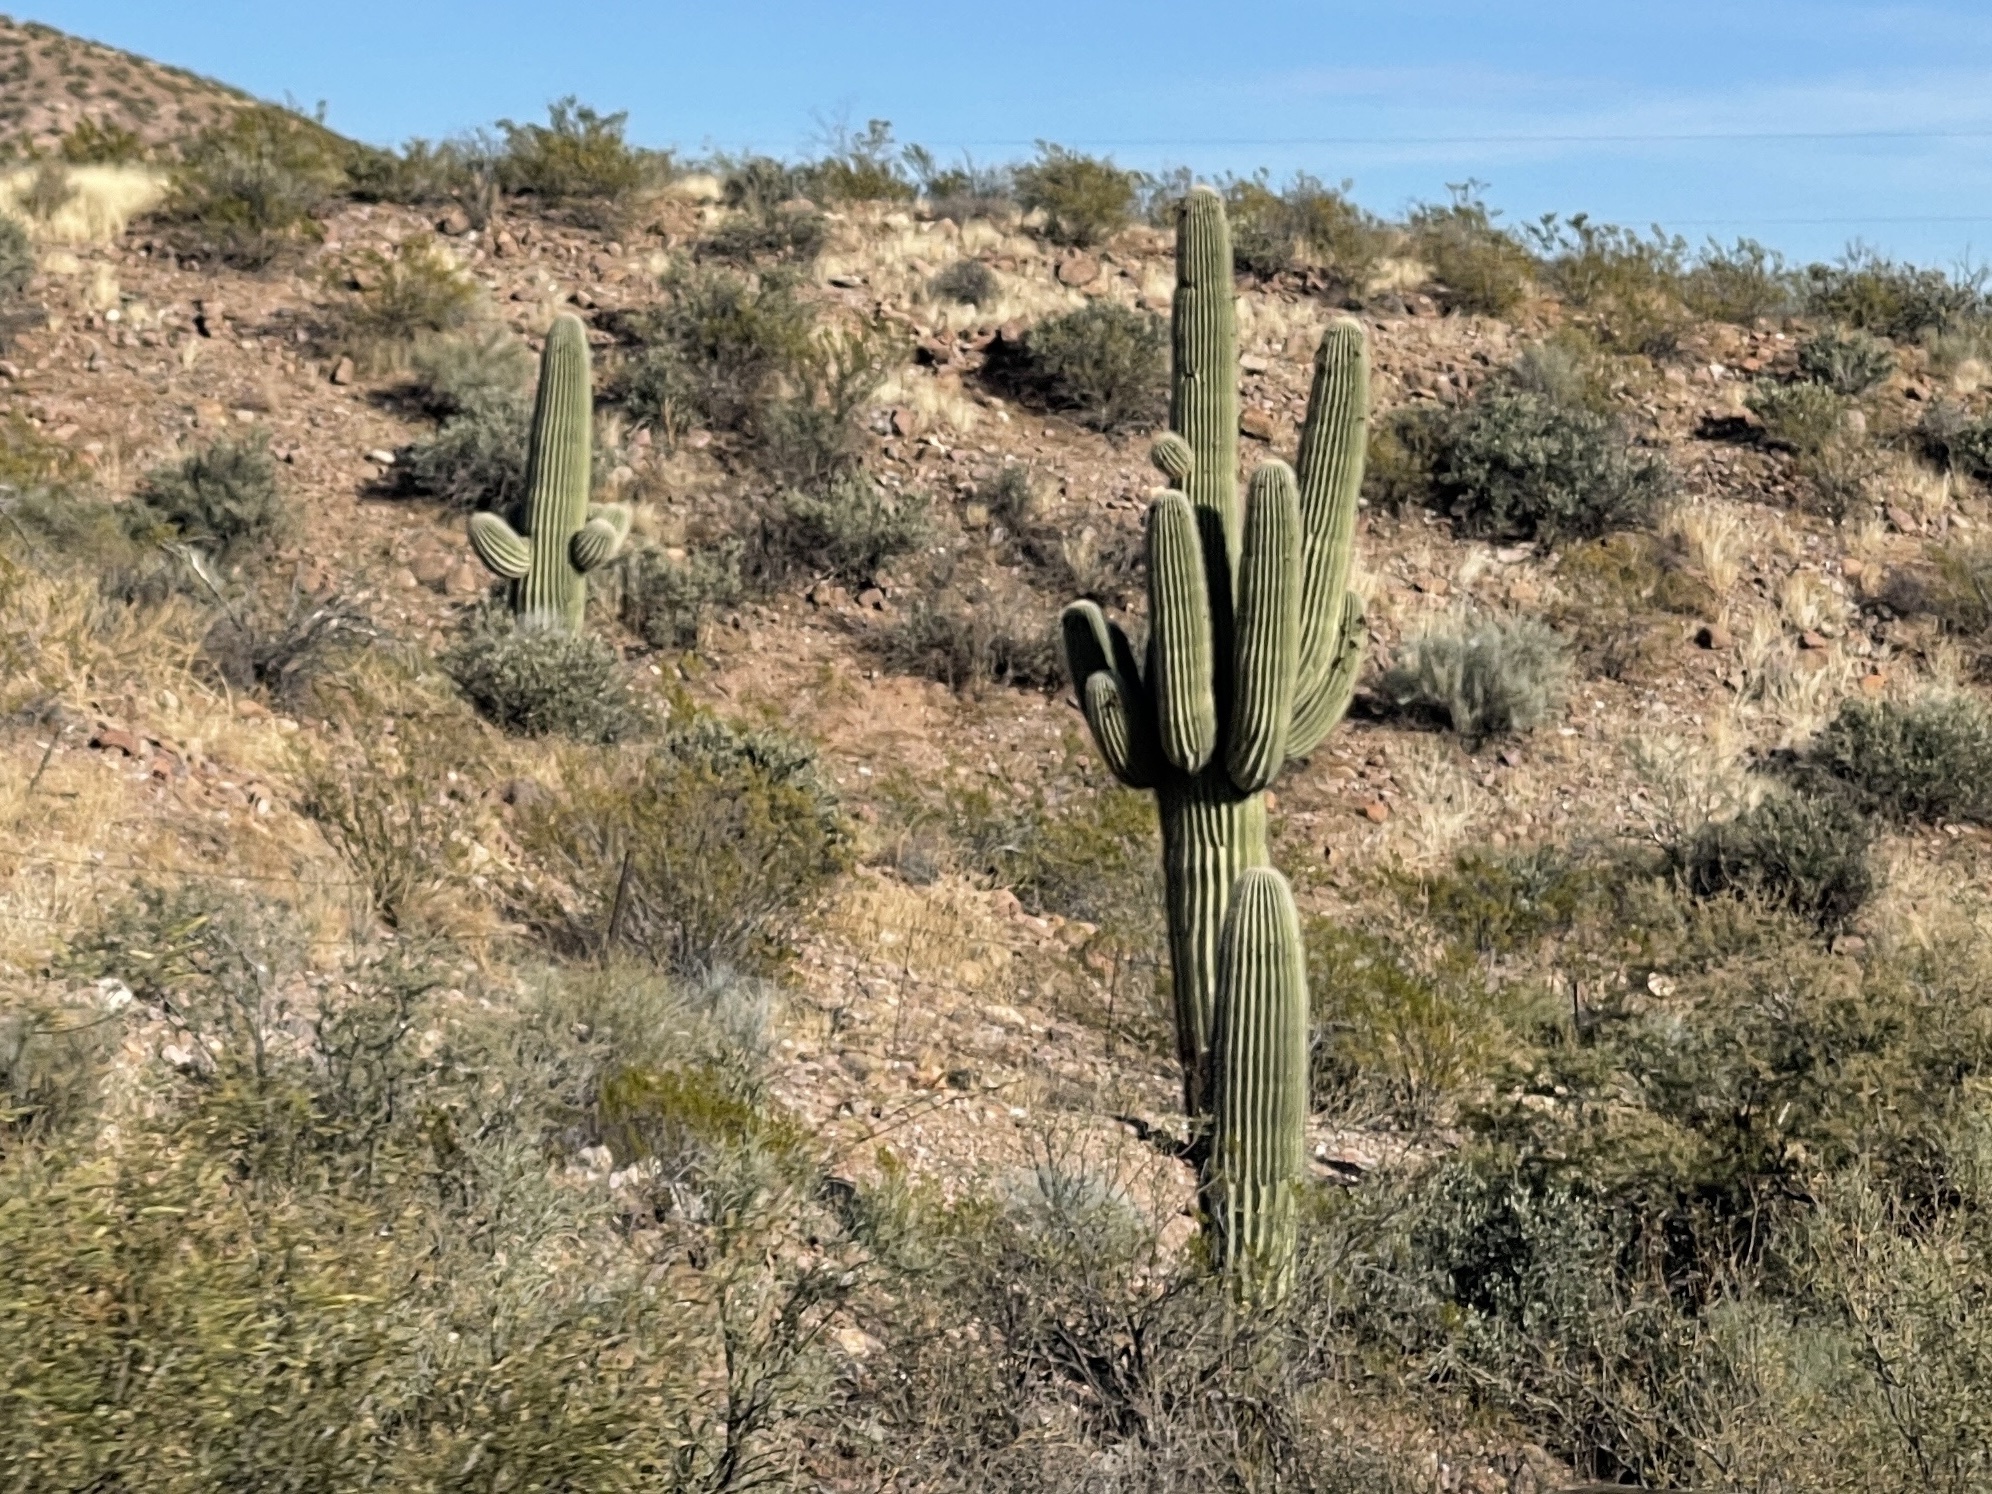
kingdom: Plantae
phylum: Tracheophyta
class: Magnoliopsida
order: Caryophyllales
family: Cactaceae
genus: Carnegiea
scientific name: Carnegiea gigantea
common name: Saguaro
